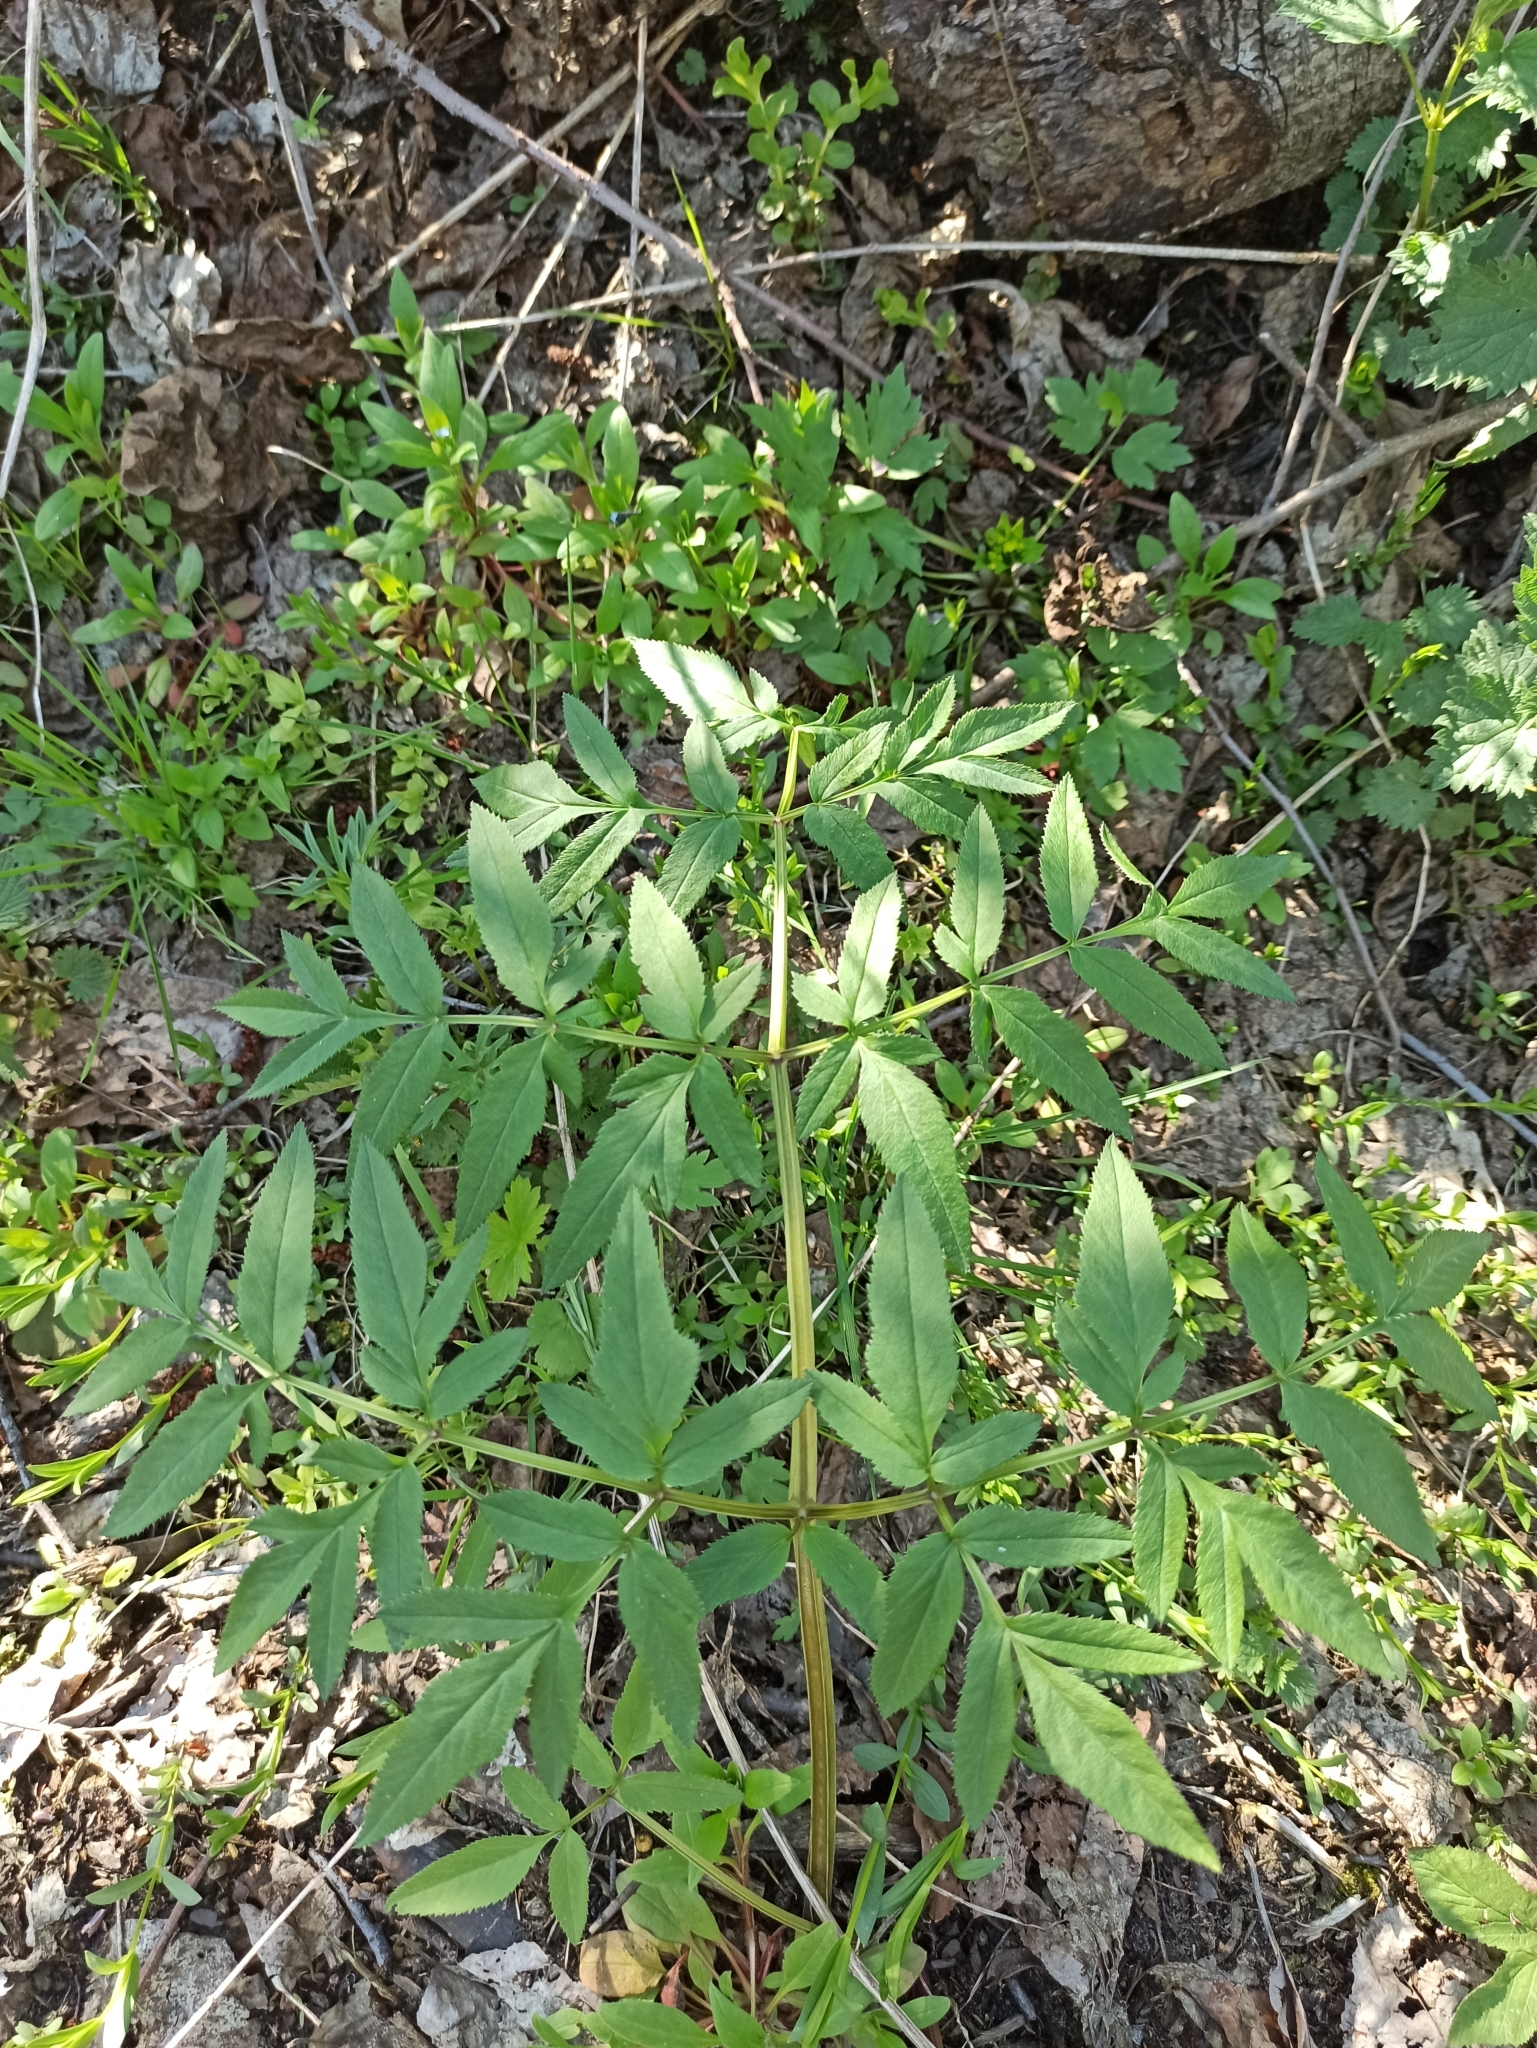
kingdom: Plantae
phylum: Tracheophyta
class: Magnoliopsida
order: Apiales
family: Apiaceae
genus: Angelica
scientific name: Angelica sylvestris
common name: Wild angelica
